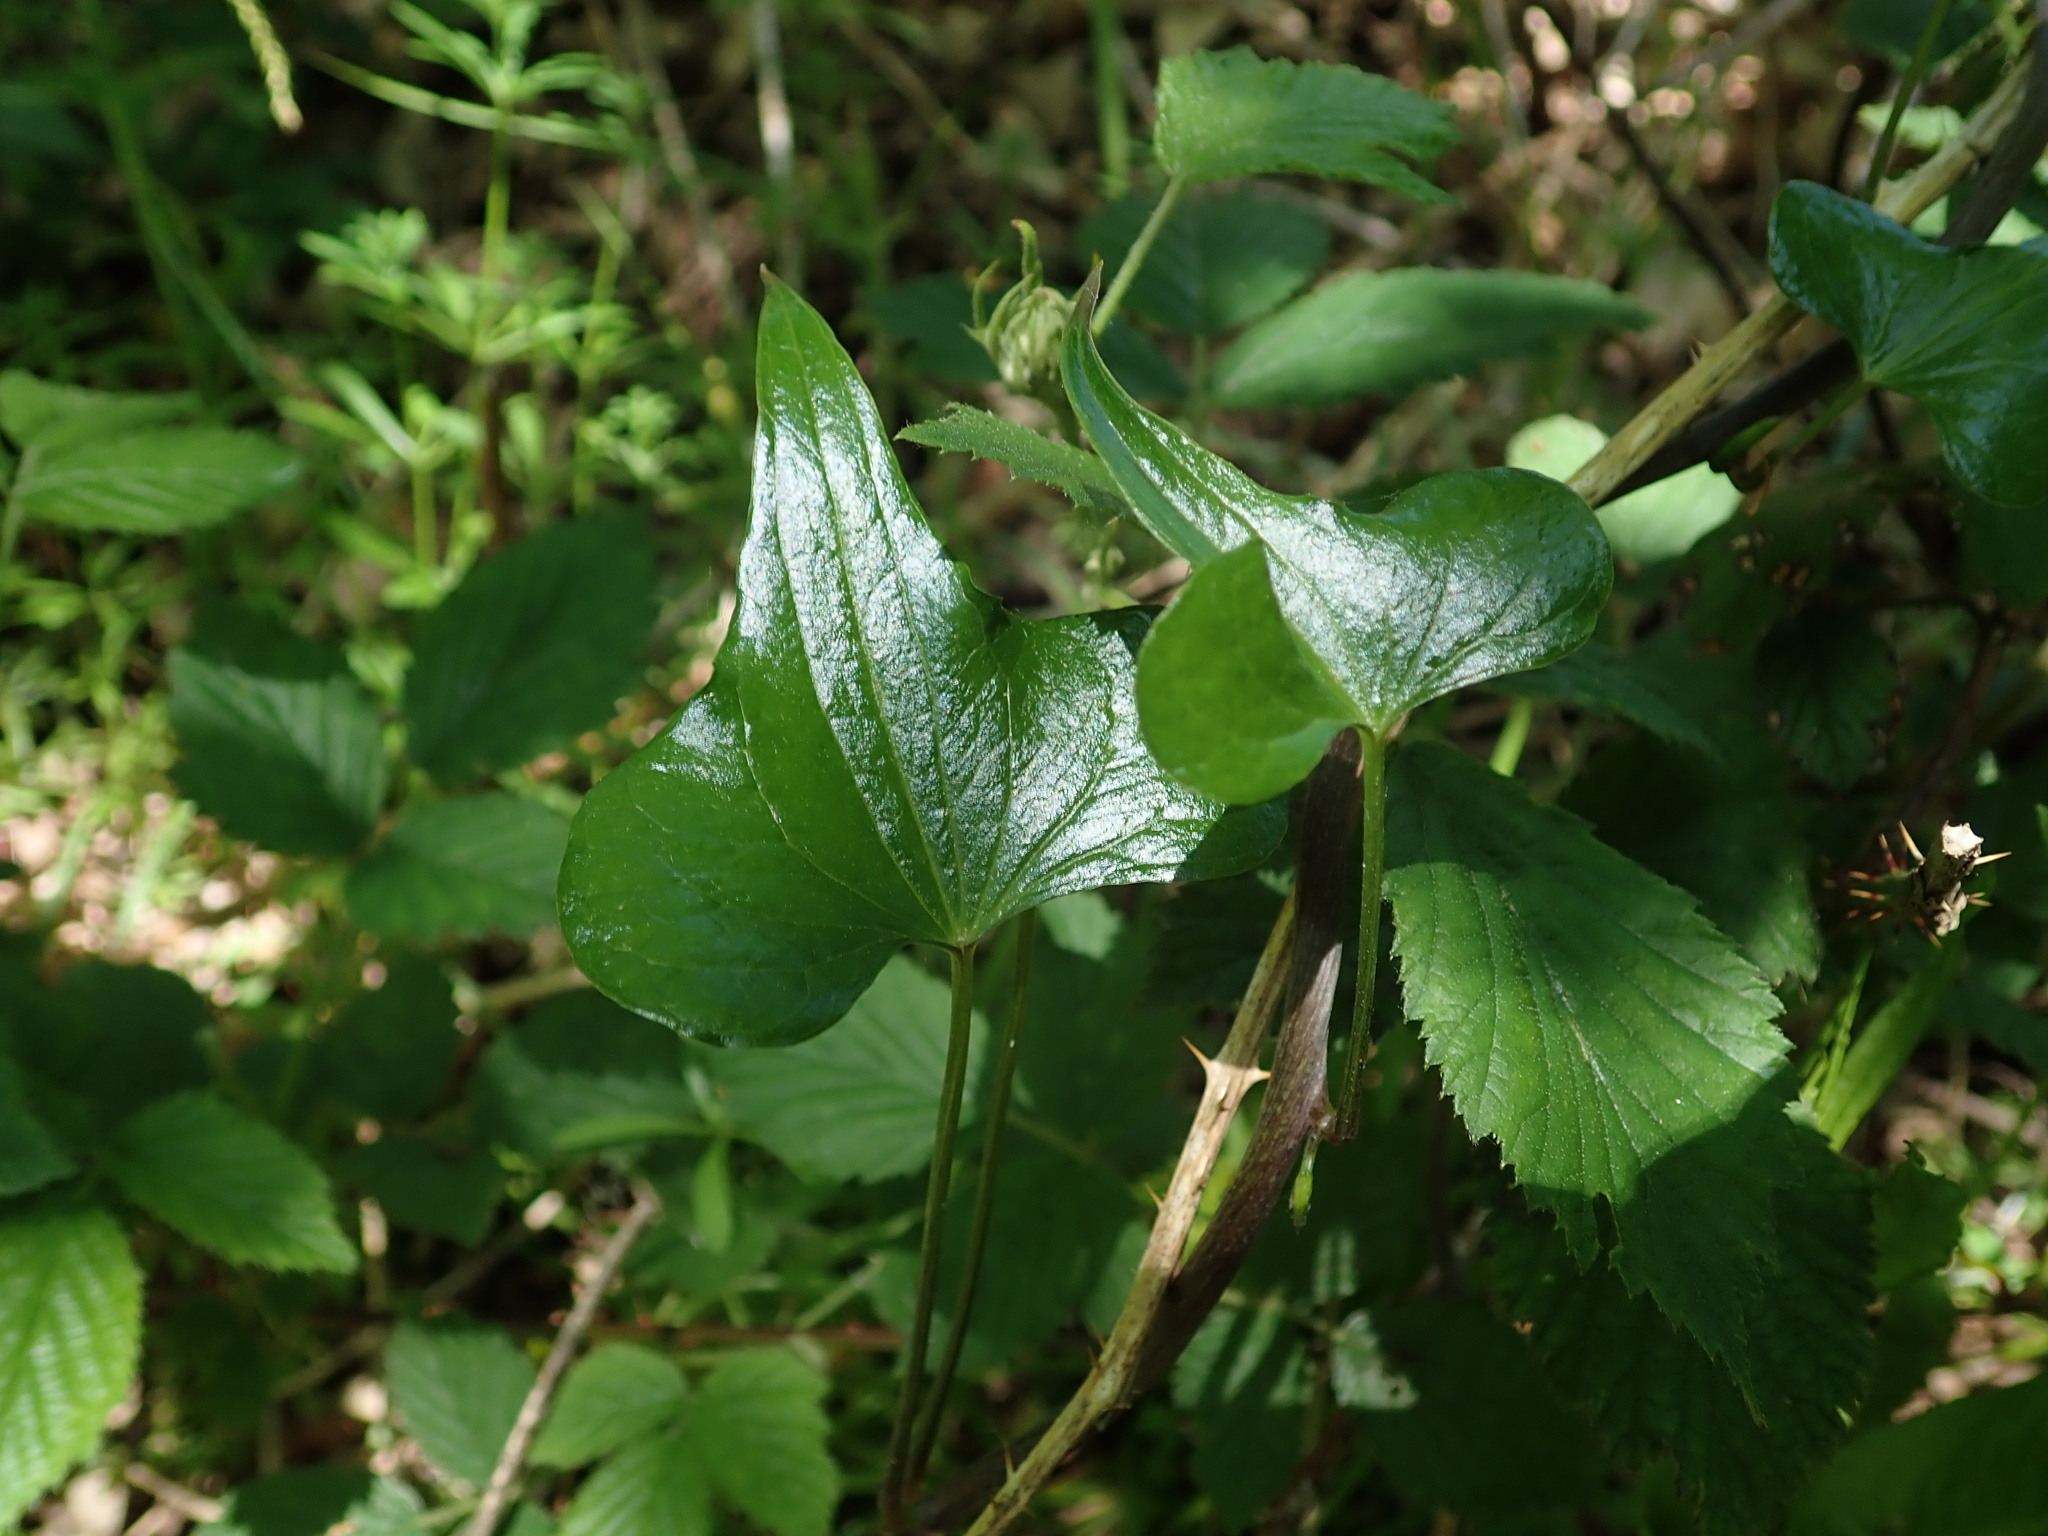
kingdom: Plantae
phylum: Tracheophyta
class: Liliopsida
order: Dioscoreales
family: Dioscoreaceae
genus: Dioscorea
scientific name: Dioscorea communis
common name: Black-bindweed
